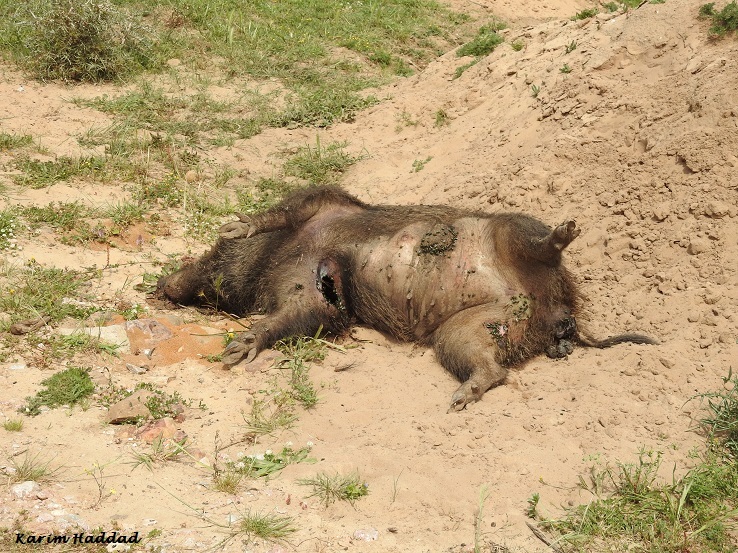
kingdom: Animalia
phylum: Chordata
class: Mammalia
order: Artiodactyla
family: Suidae
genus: Sus
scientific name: Sus scrofa
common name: Wild boar
